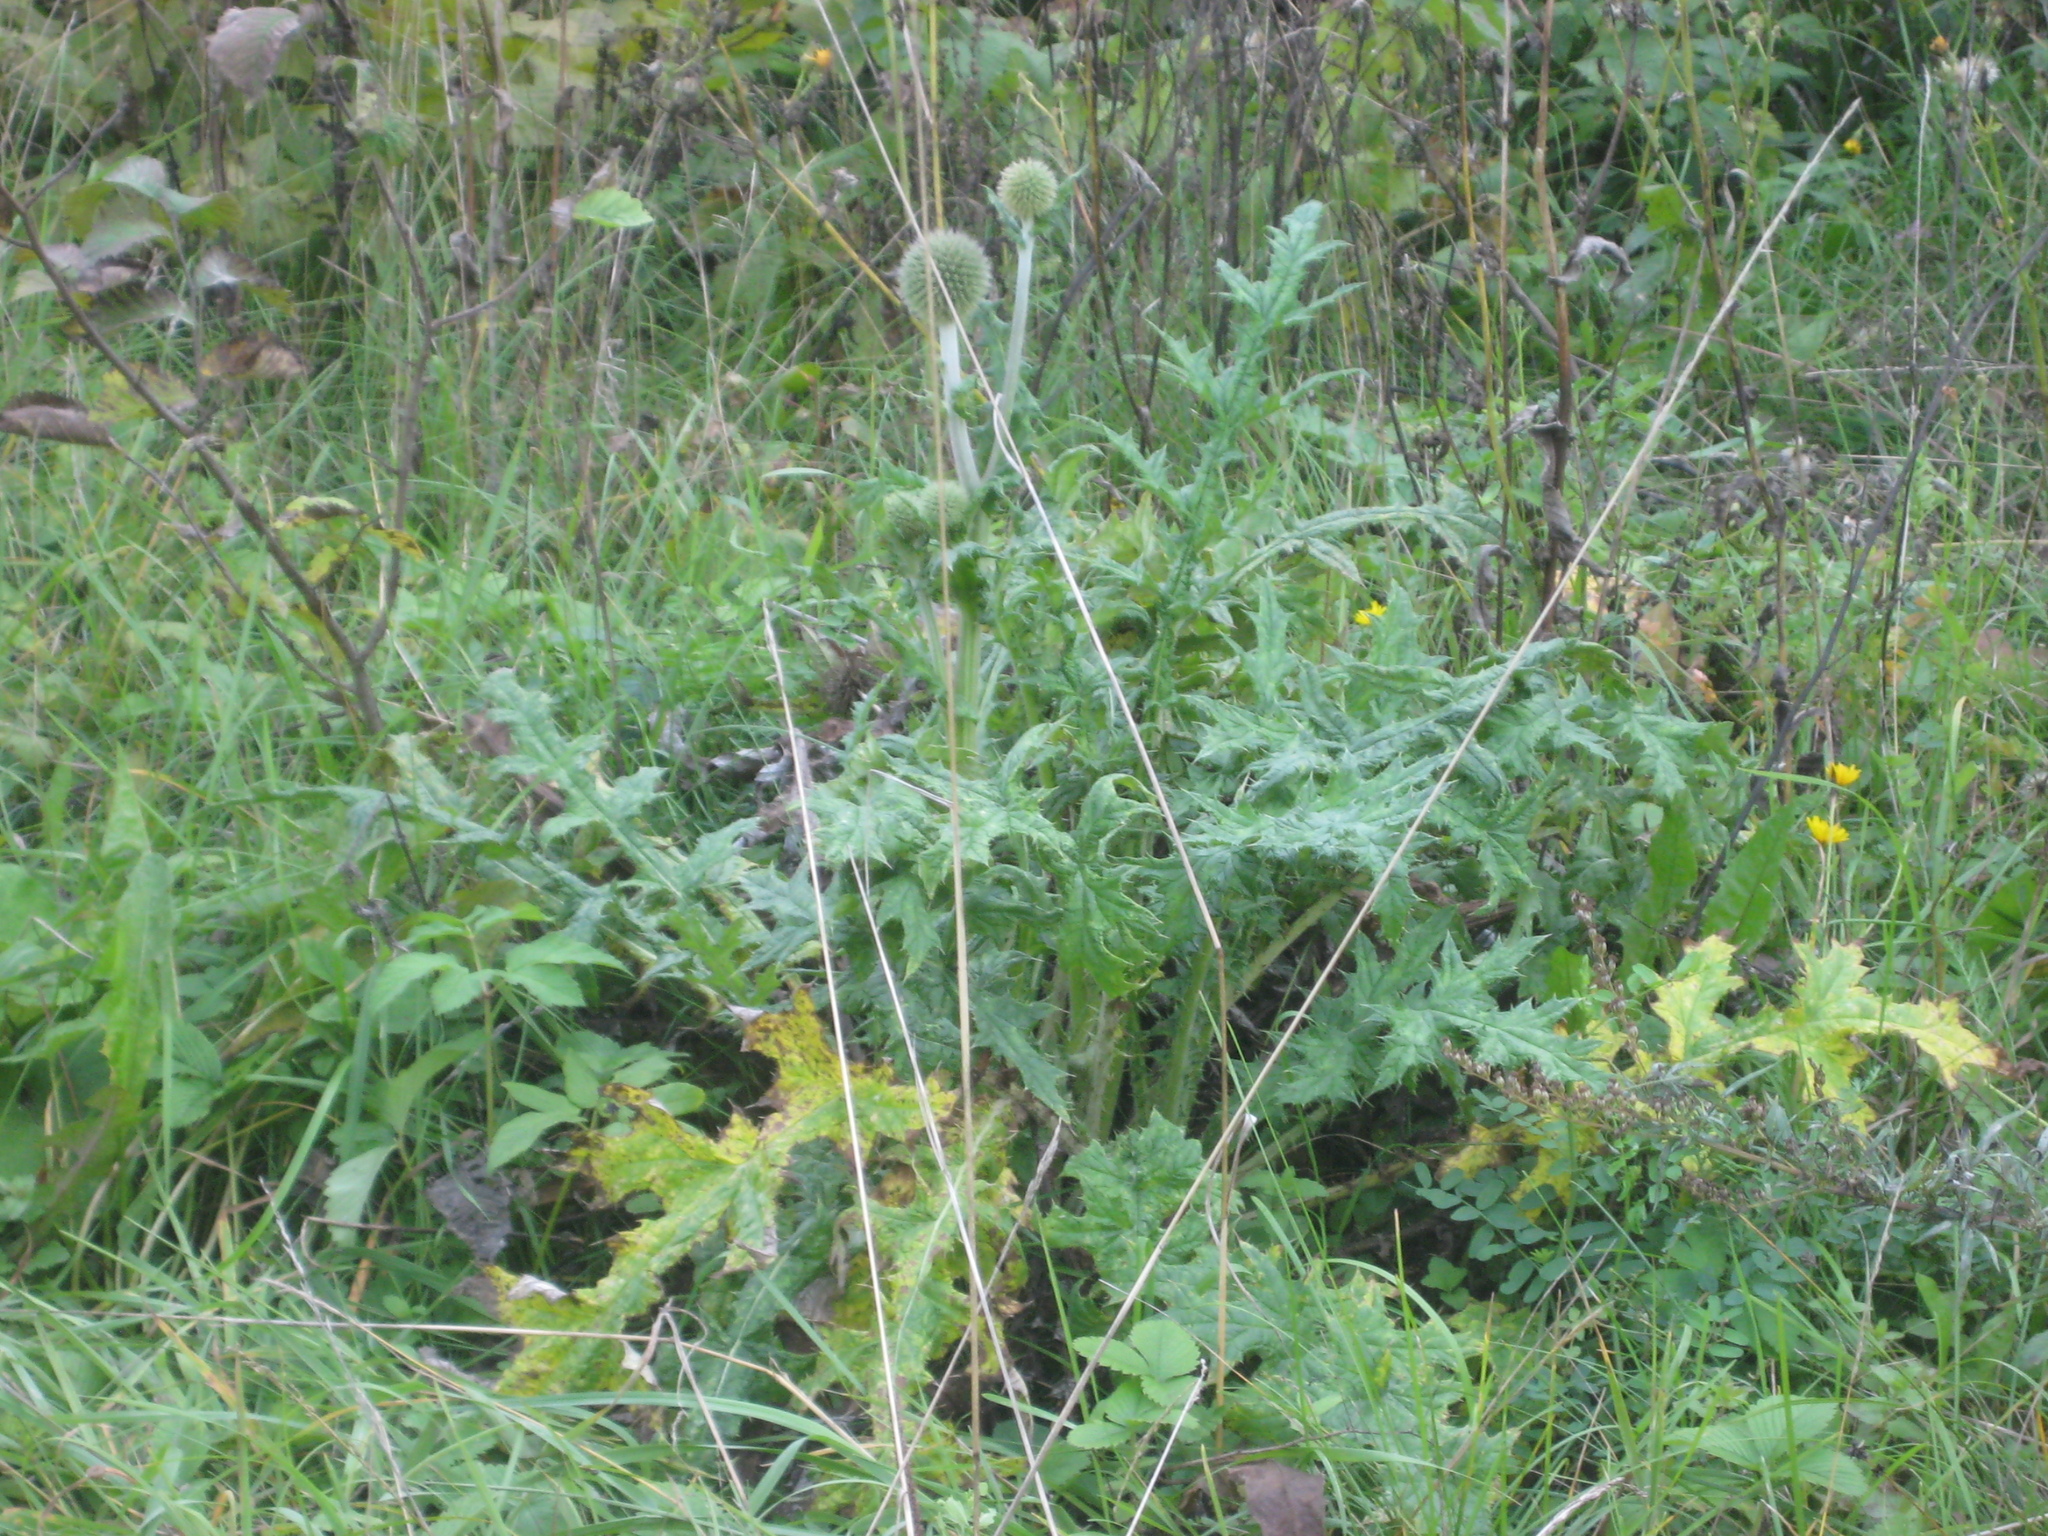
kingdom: Plantae
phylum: Tracheophyta
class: Magnoliopsida
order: Asterales
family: Asteraceae
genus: Echinops
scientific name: Echinops sphaerocephalus
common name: Glandular globe-thistle
